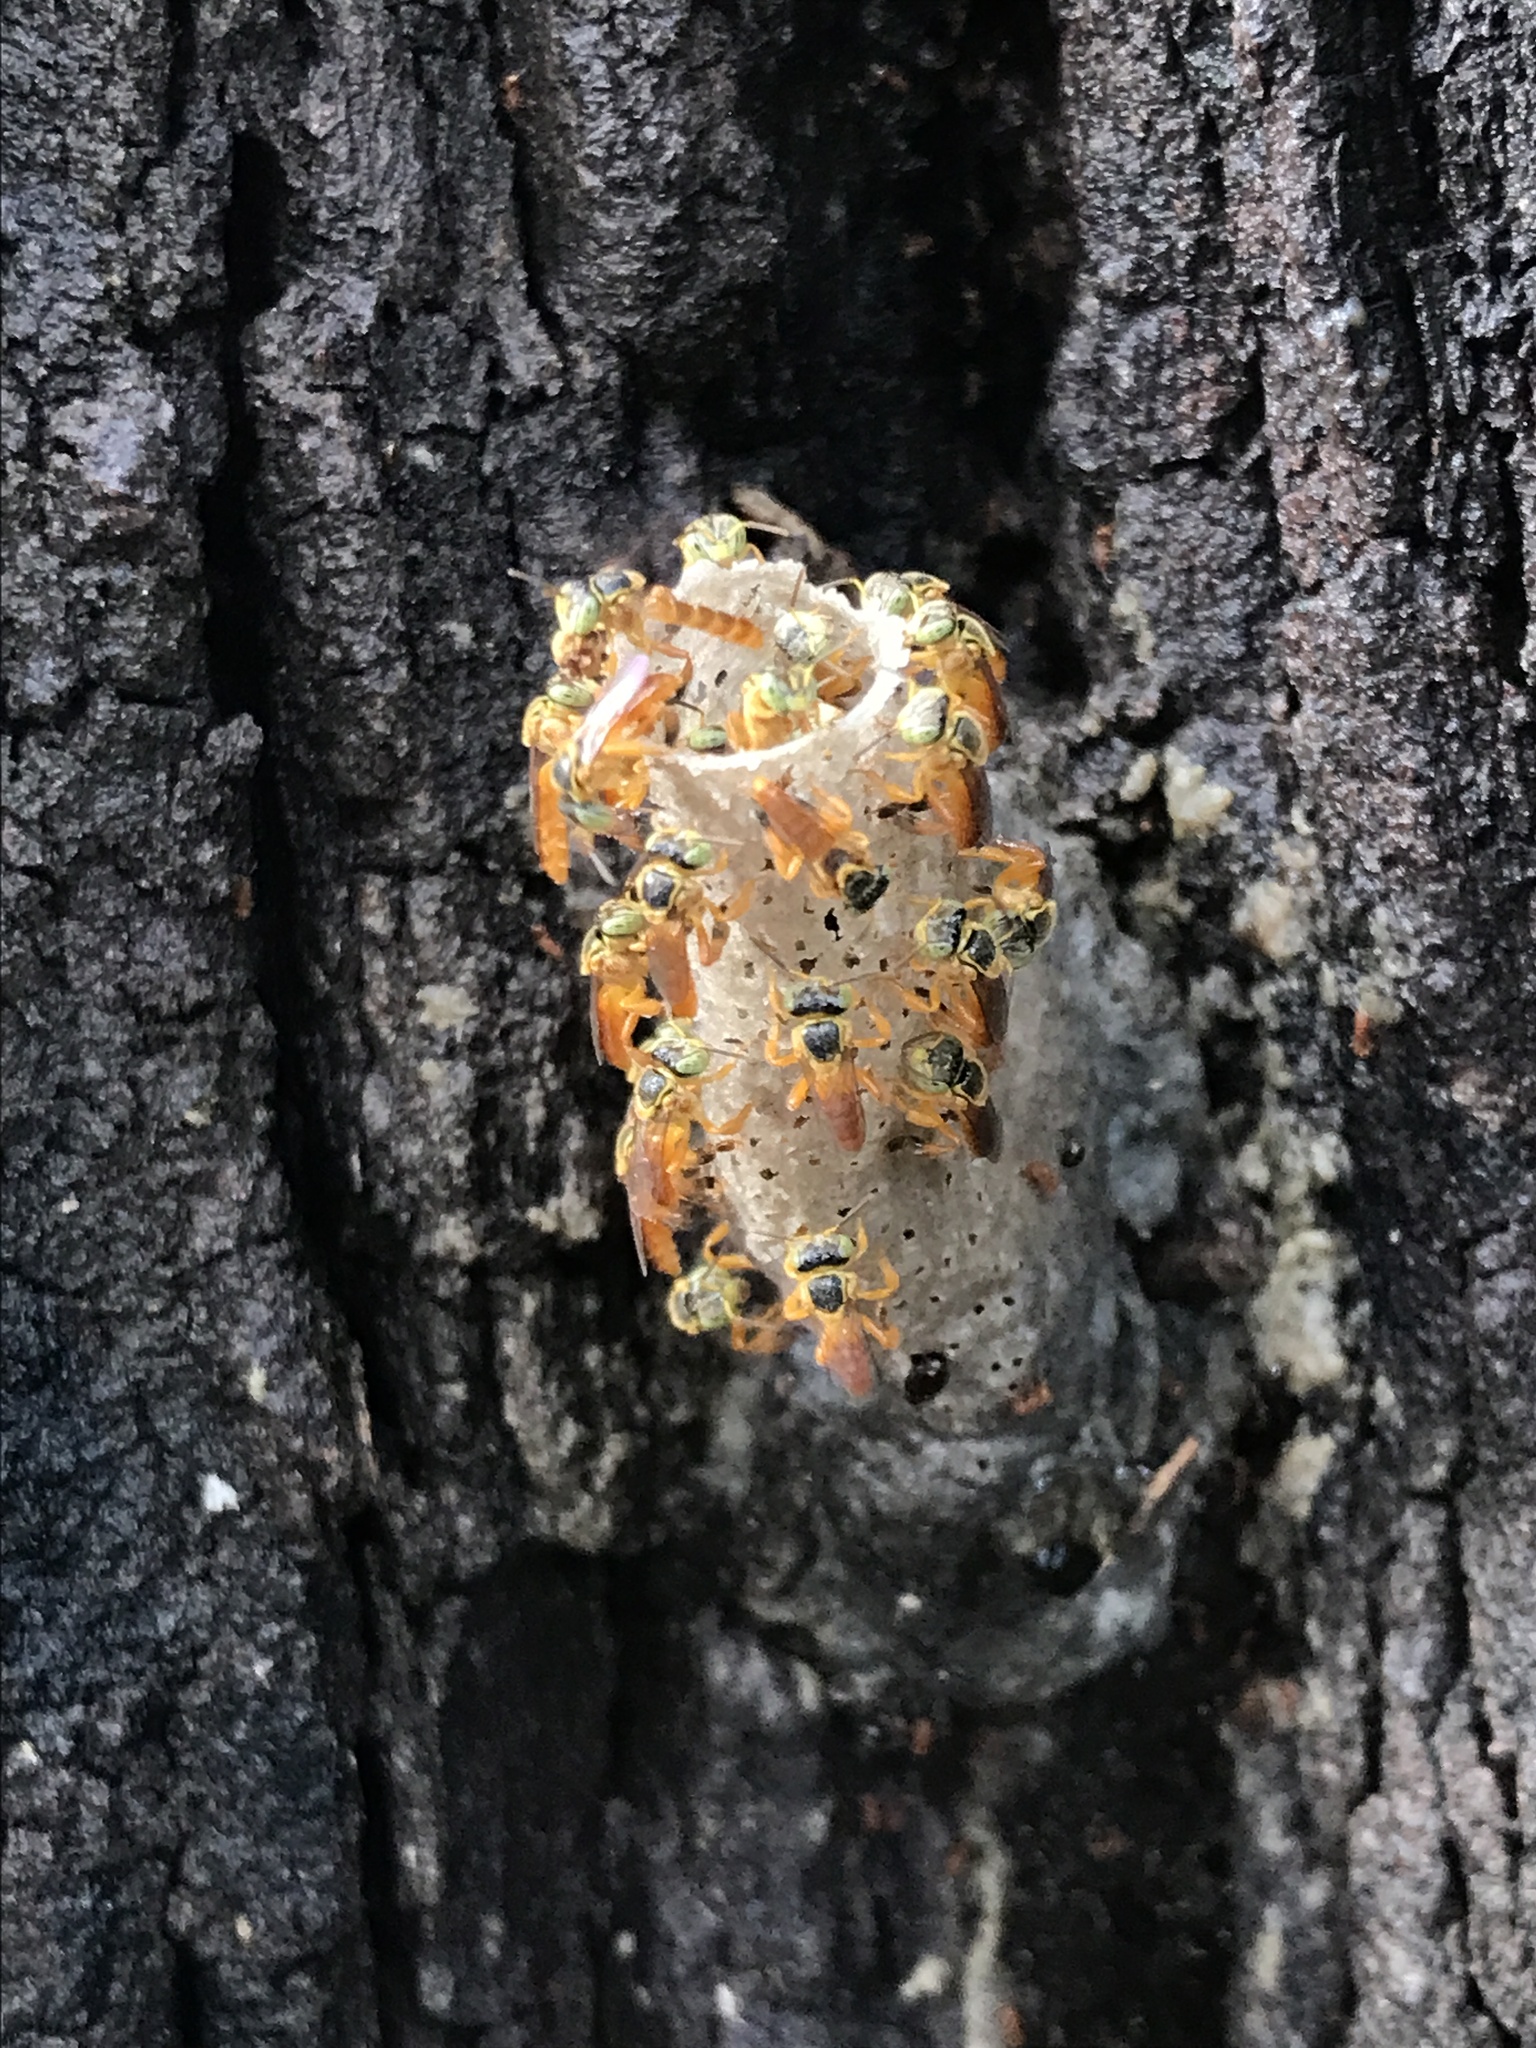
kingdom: Animalia
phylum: Arthropoda
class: Insecta
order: Hymenoptera
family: Apidae
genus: Tetragonisca
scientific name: Tetragonisca fiebrigi
